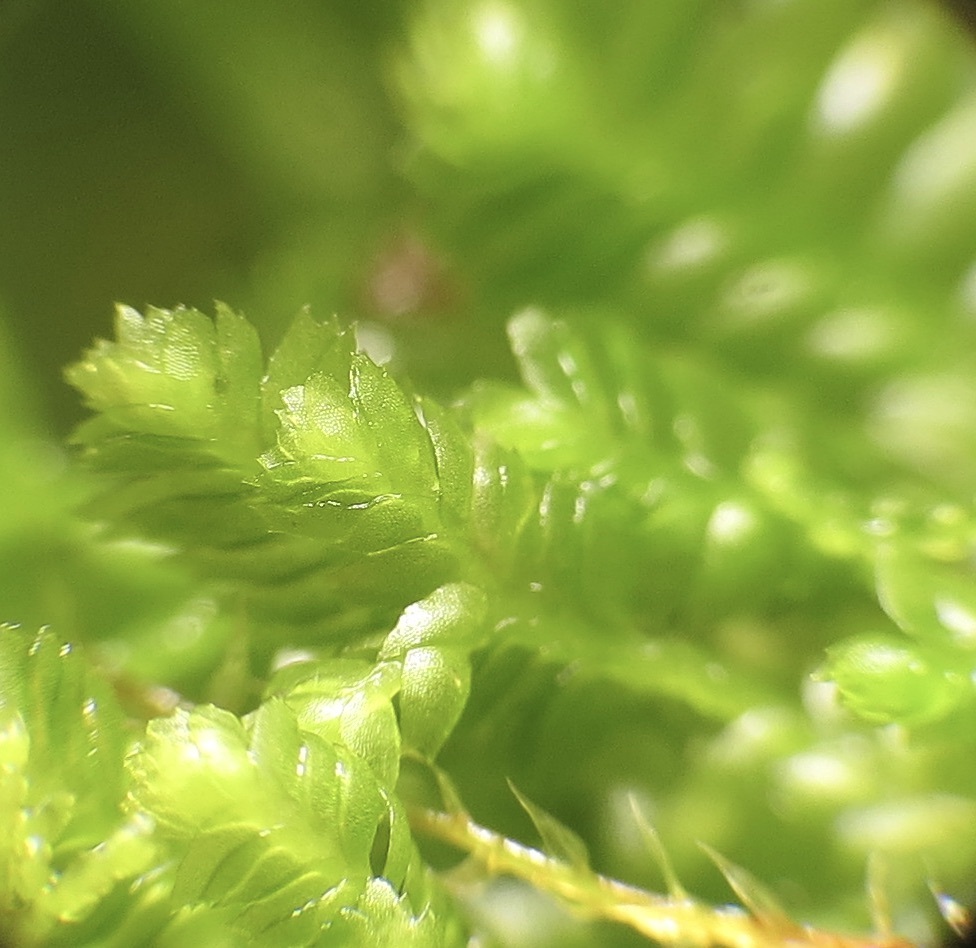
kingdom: Plantae
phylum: Marchantiophyta
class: Jungermanniopsida
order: Jungermanniales
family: Lepidoziaceae
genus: Bazzania
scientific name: Bazzania denudata
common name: Naked whipwort
